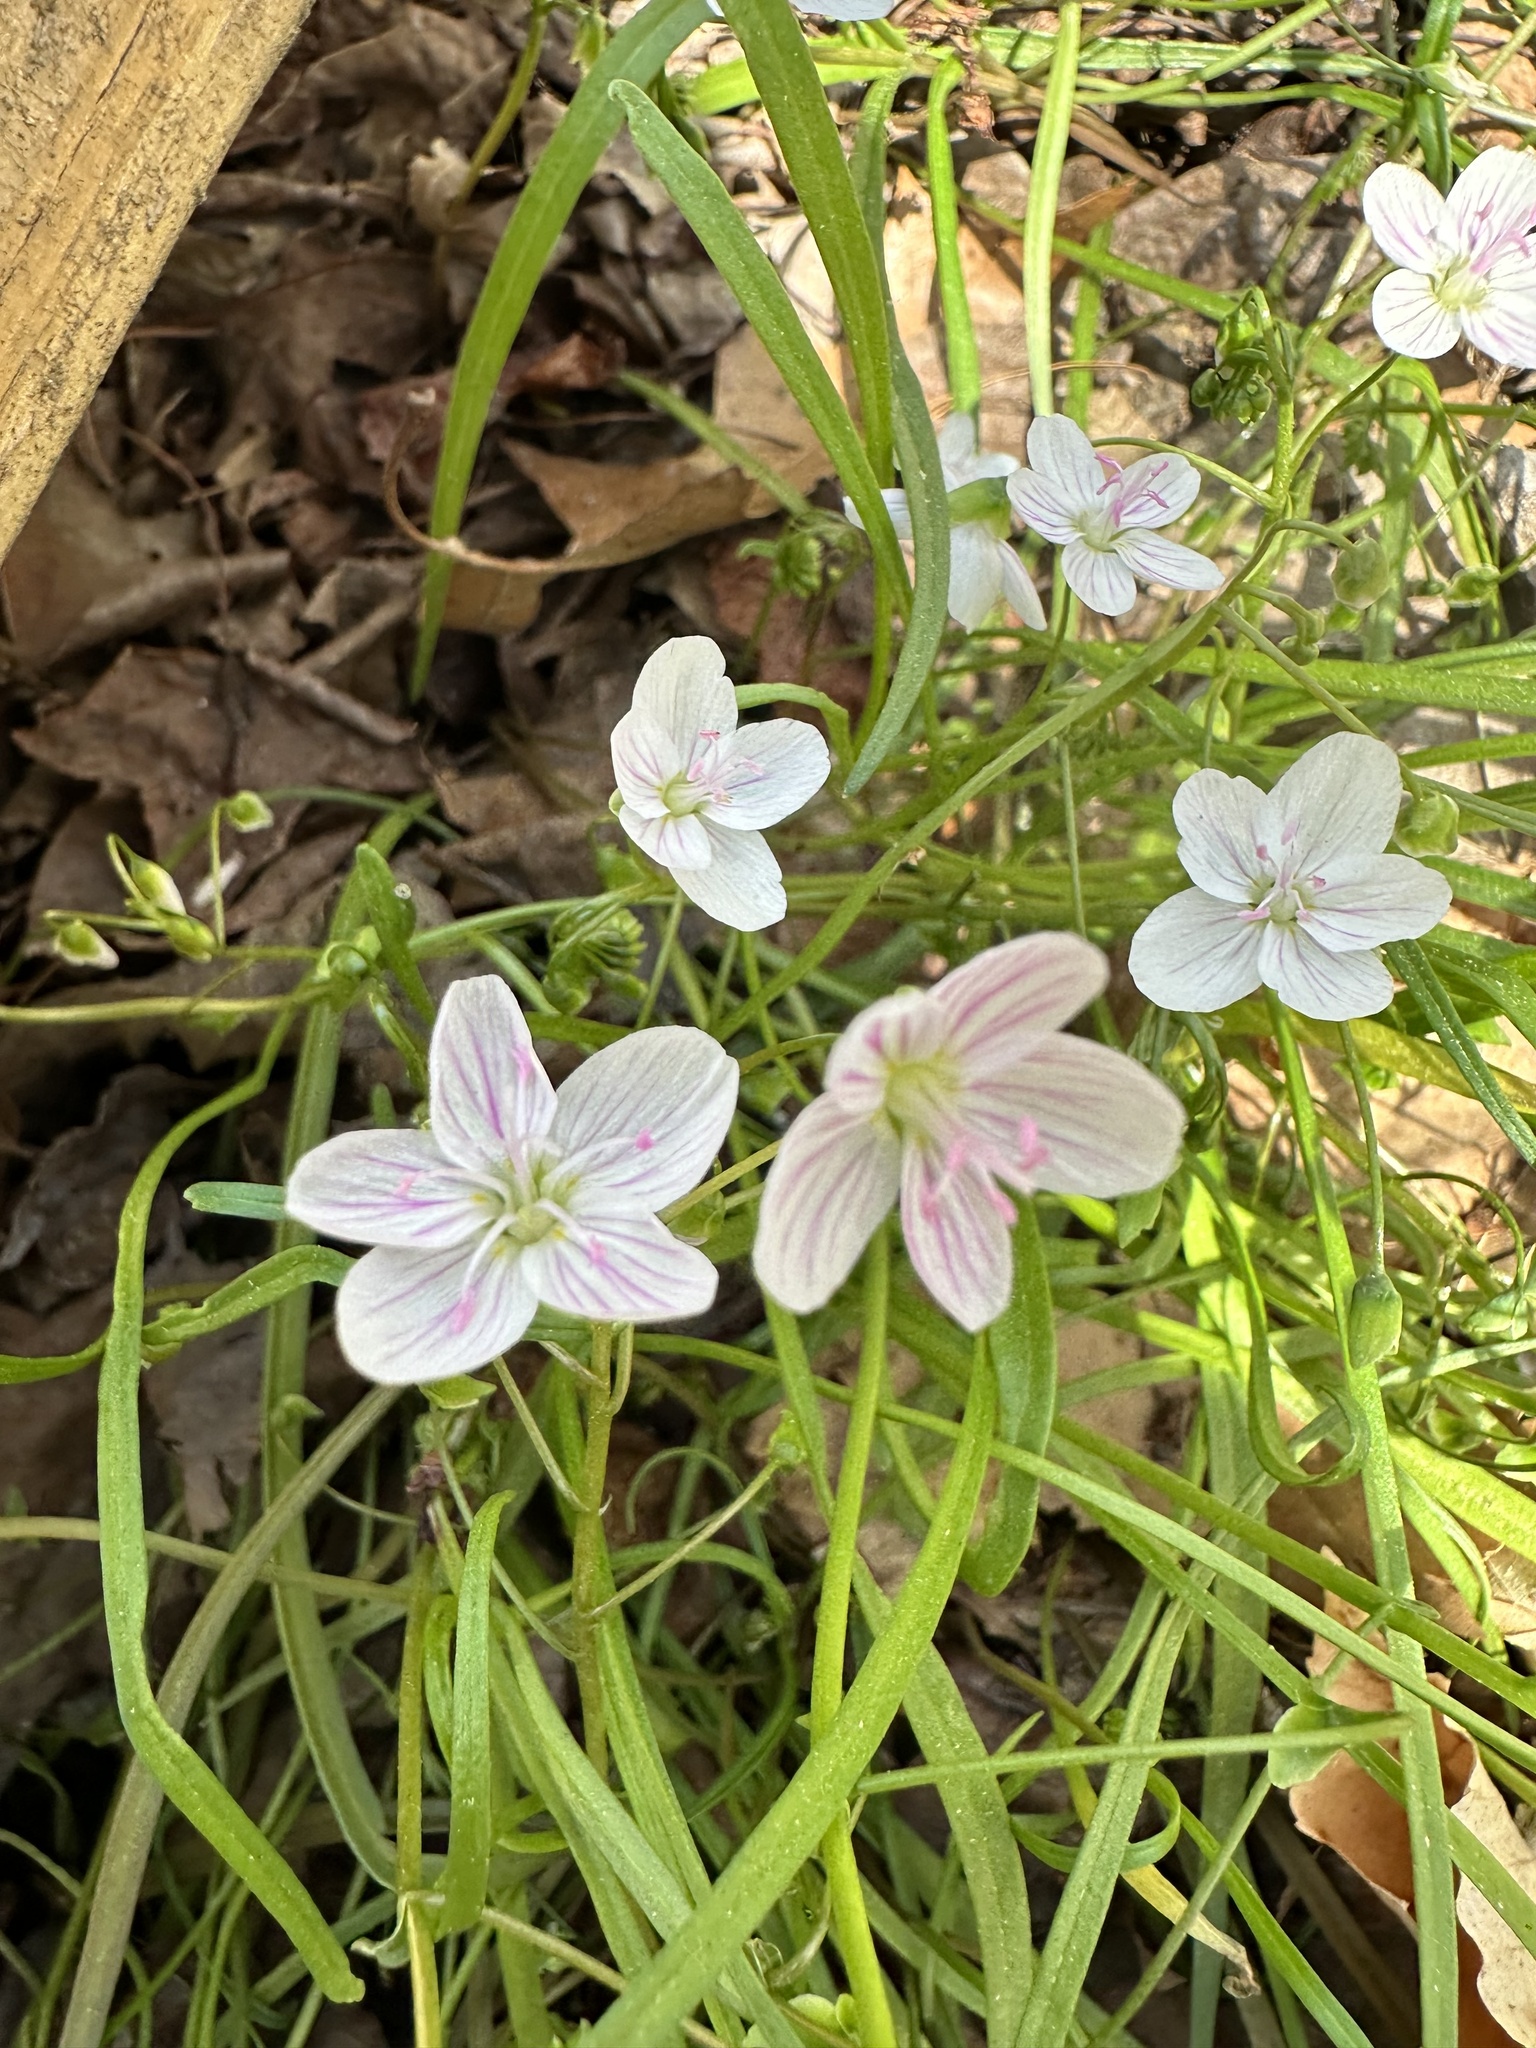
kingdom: Plantae
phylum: Tracheophyta
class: Magnoliopsida
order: Caryophyllales
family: Montiaceae
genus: Claytonia
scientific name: Claytonia virginica
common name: Virginia springbeauty
